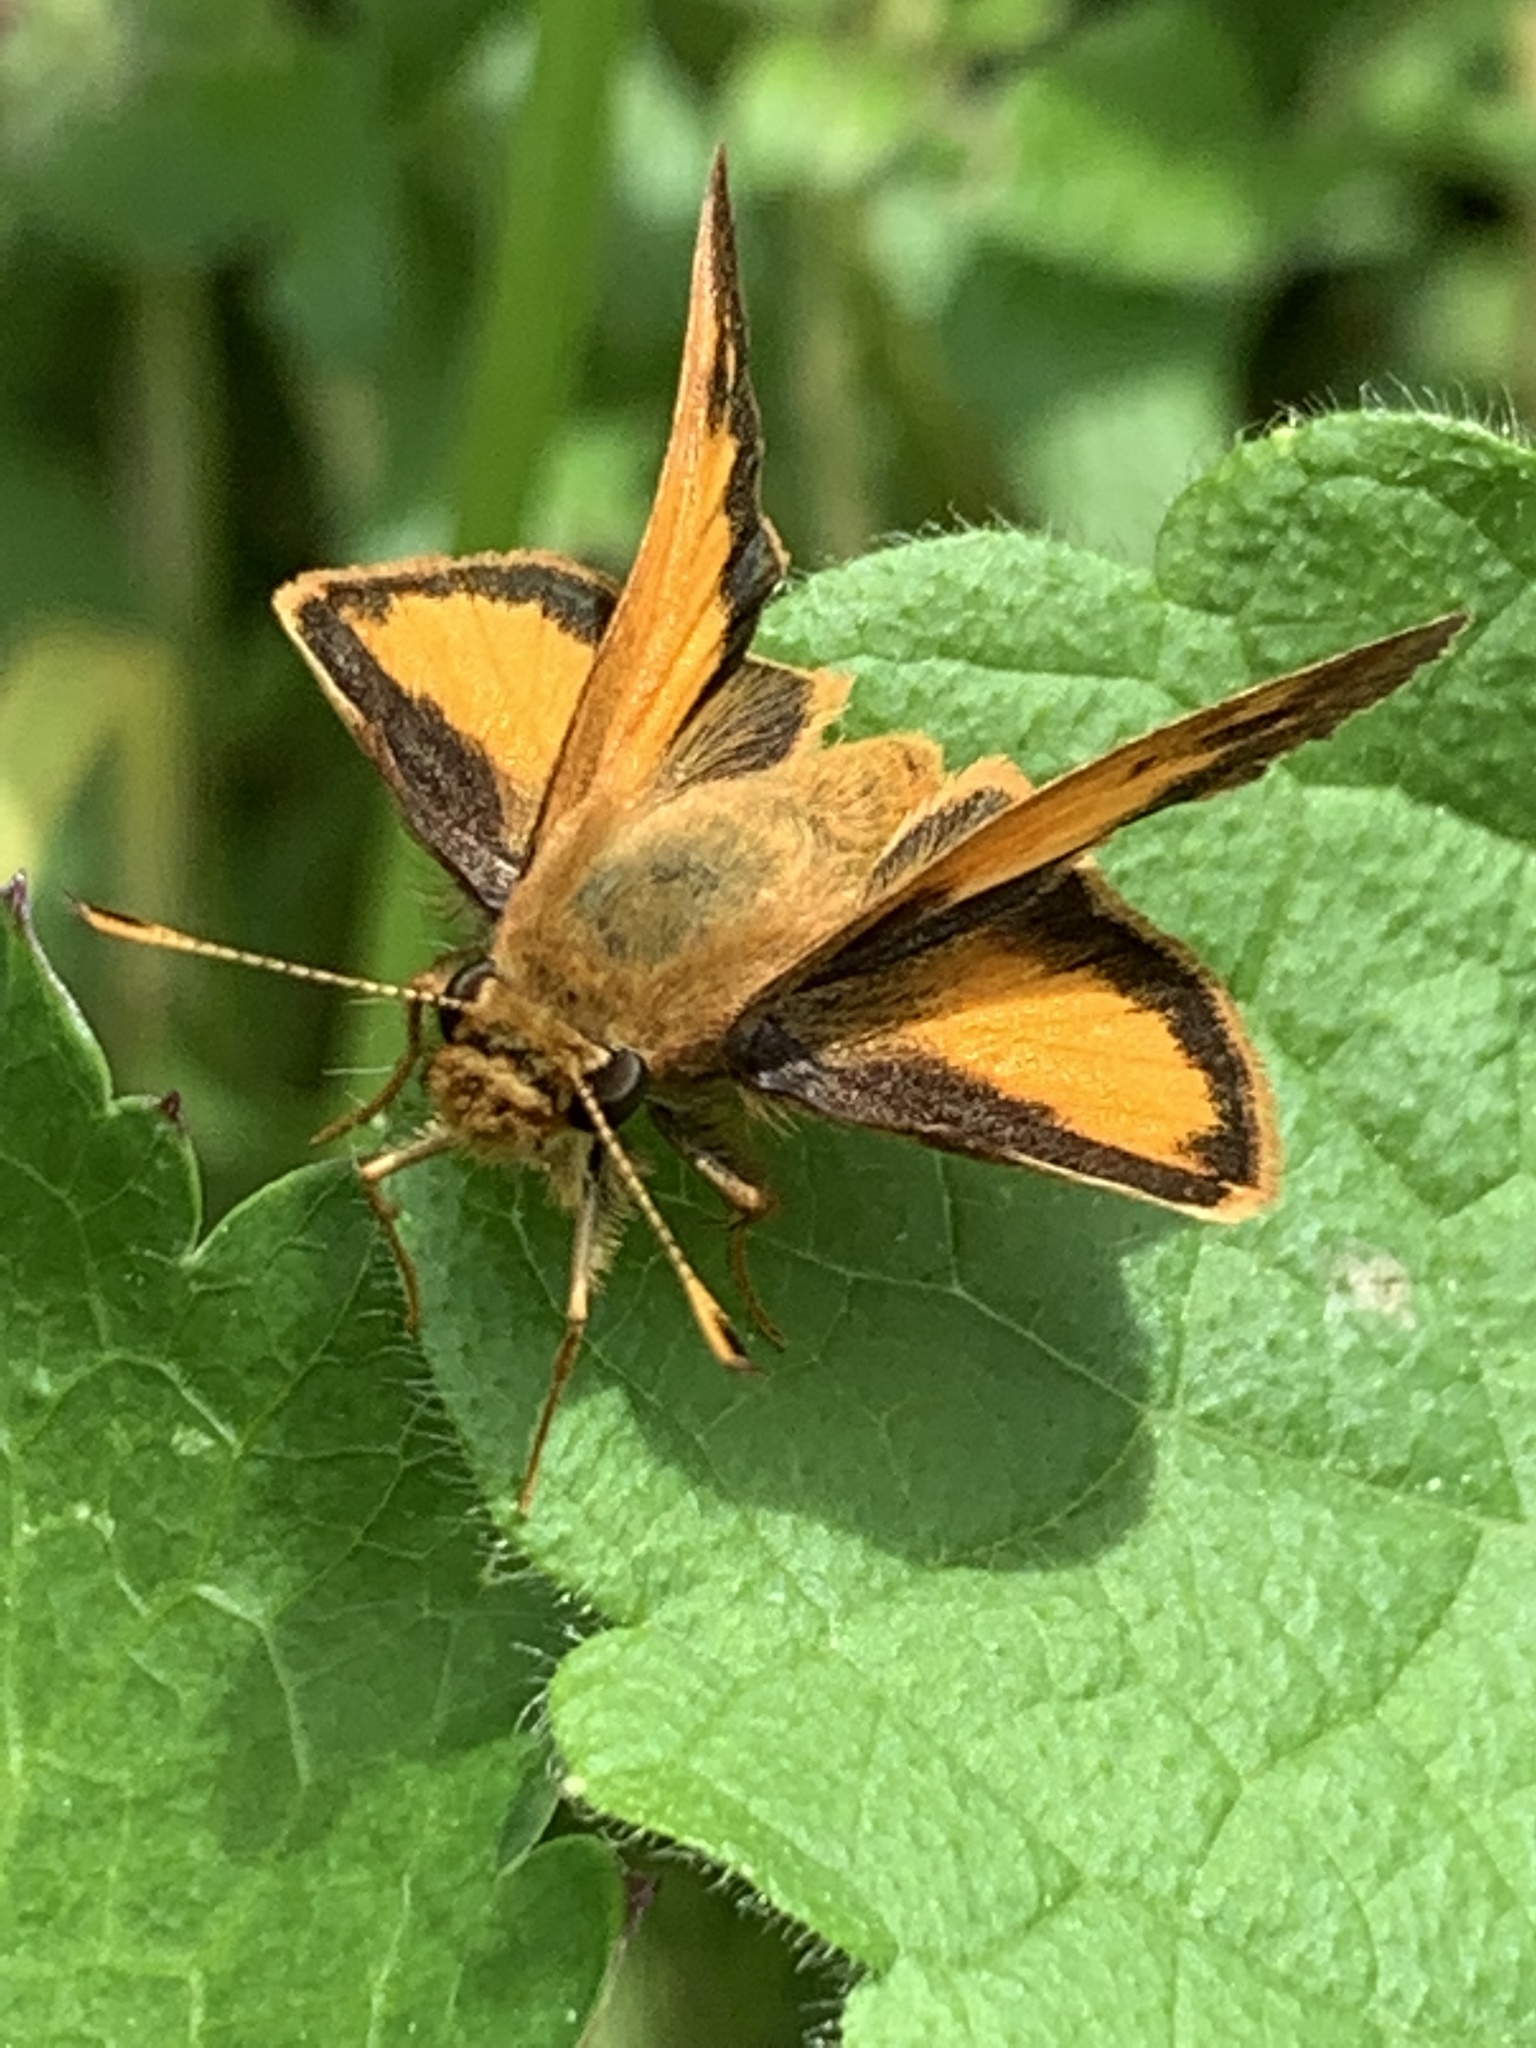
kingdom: Animalia
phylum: Arthropoda
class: Insecta
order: Lepidoptera
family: Hesperiidae
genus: Lon
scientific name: Lon zabulon
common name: Zabulon skipper
